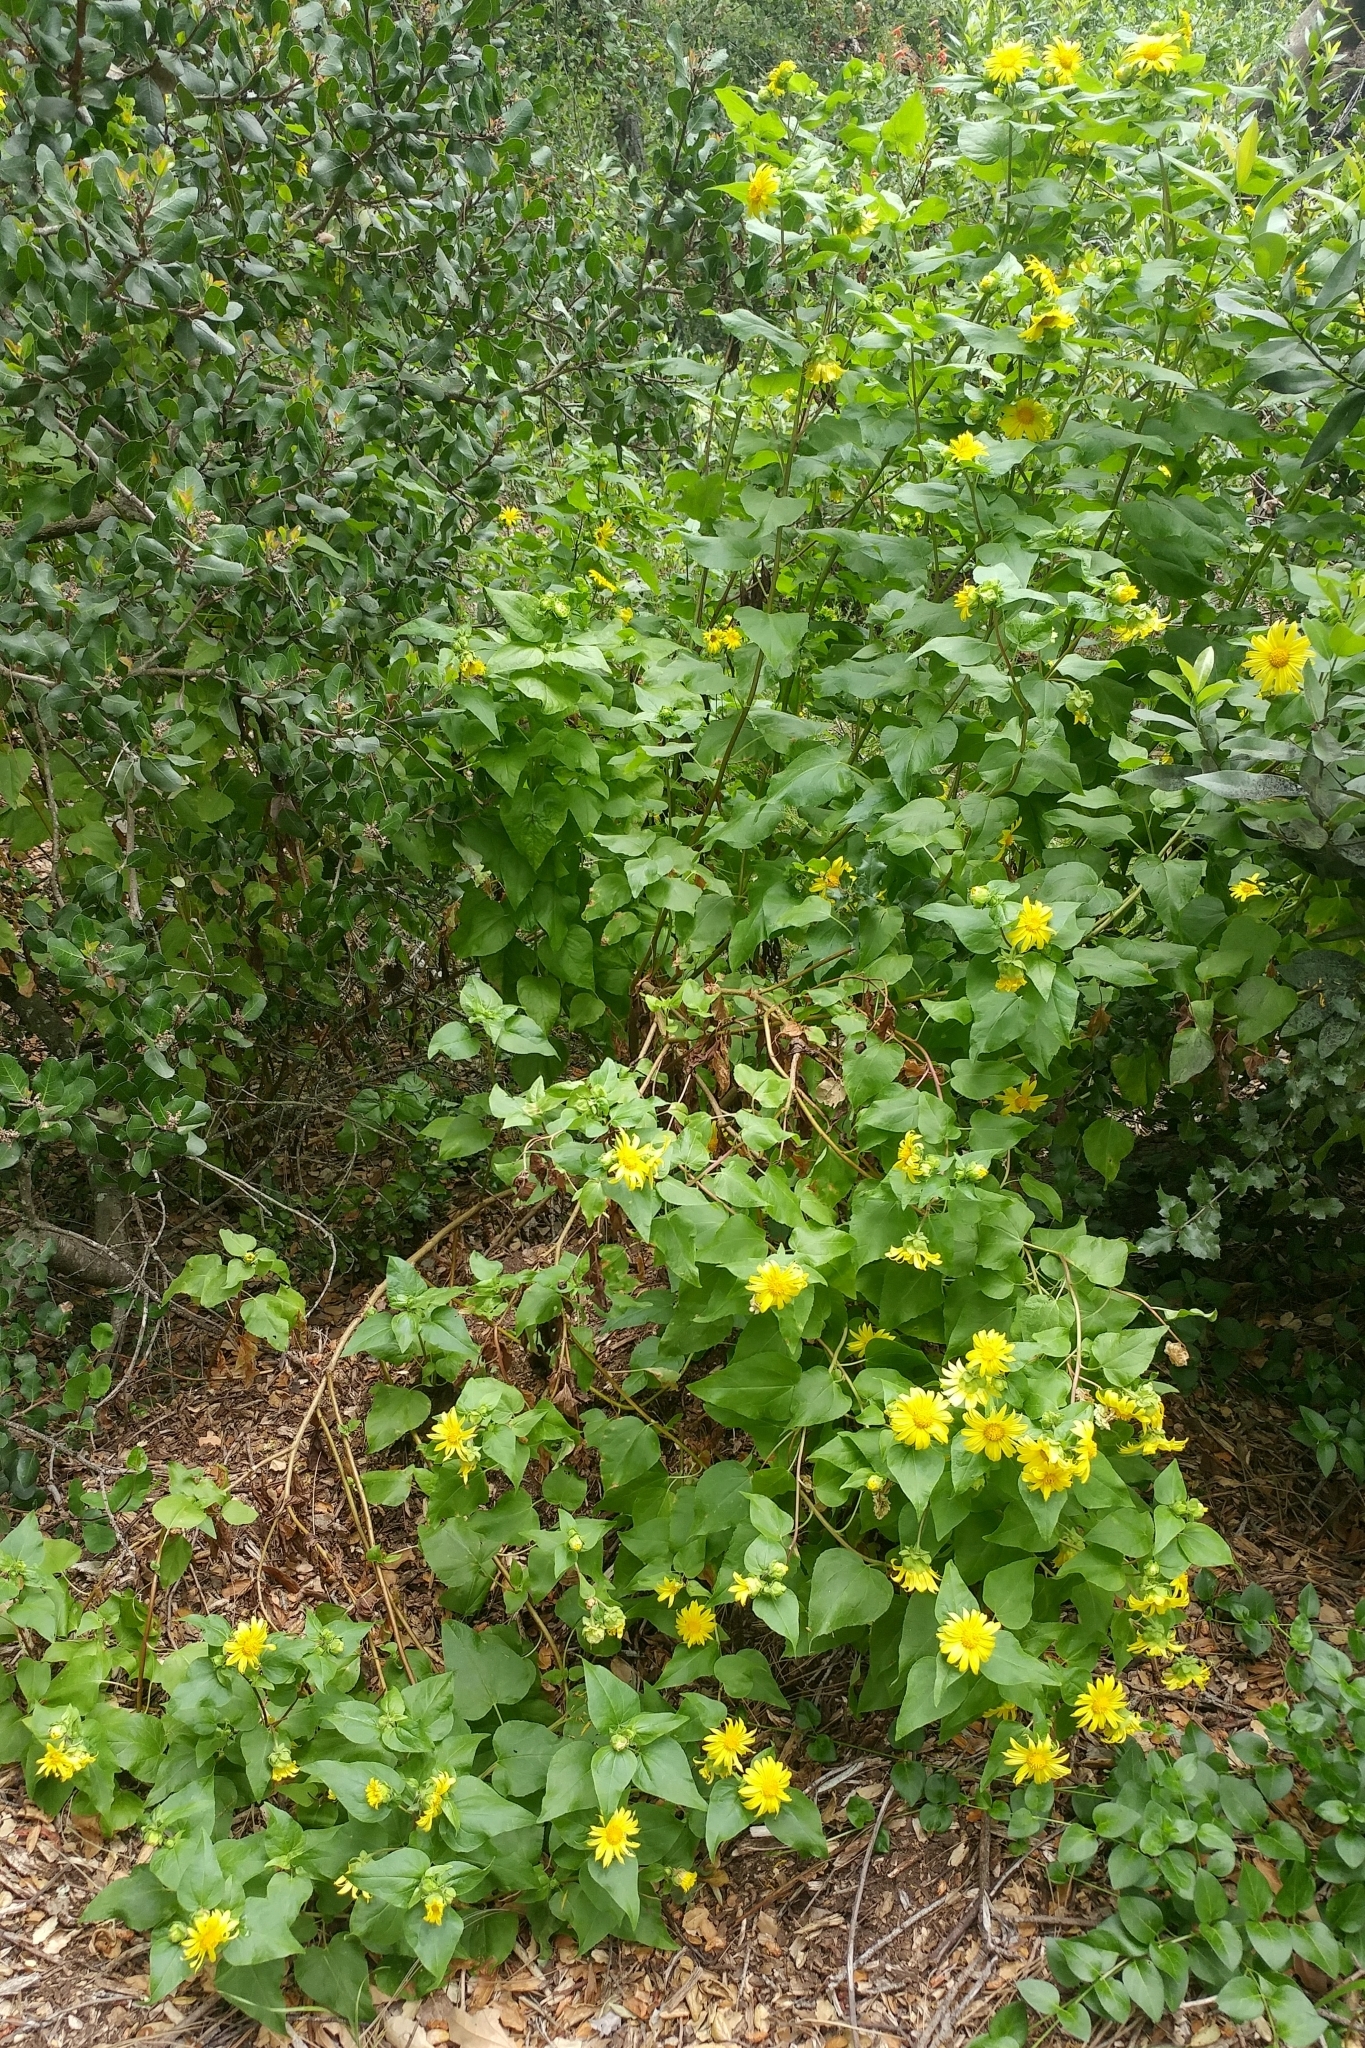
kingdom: Plantae
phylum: Tracheophyta
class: Magnoliopsida
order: Asterales
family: Asteraceae
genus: Venegasia
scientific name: Venegasia carpesioides
